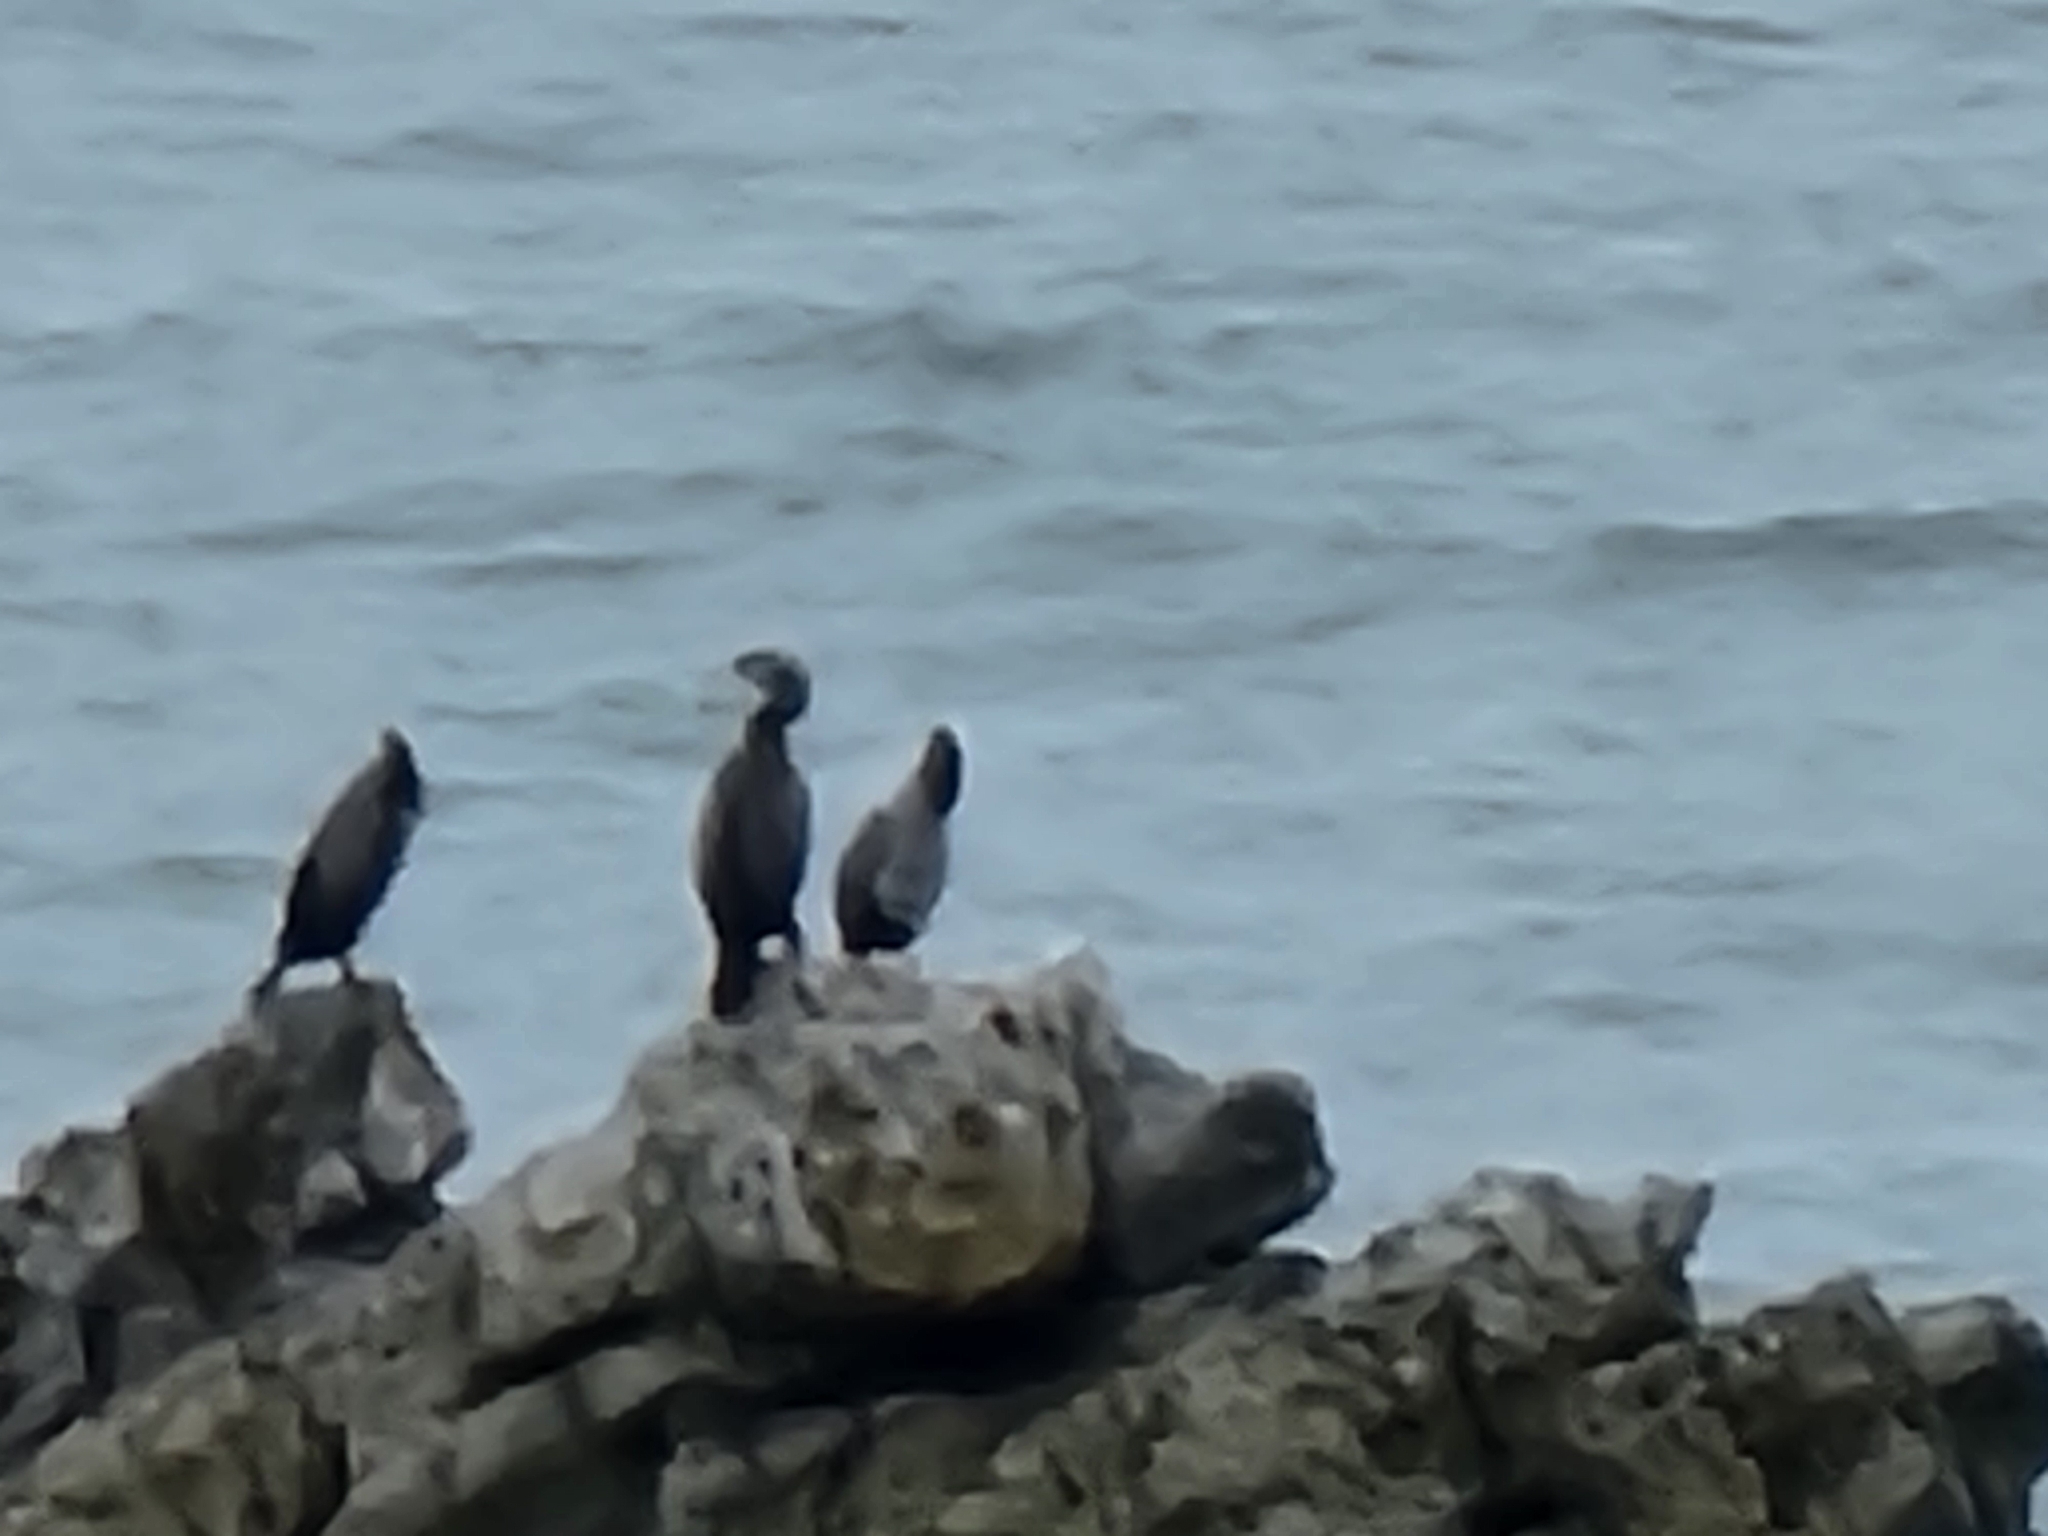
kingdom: Animalia
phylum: Chordata
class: Aves
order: Suliformes
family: Phalacrocoracidae
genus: Phalacrocorax
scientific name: Phalacrocorax punctatus
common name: Spotted shag
